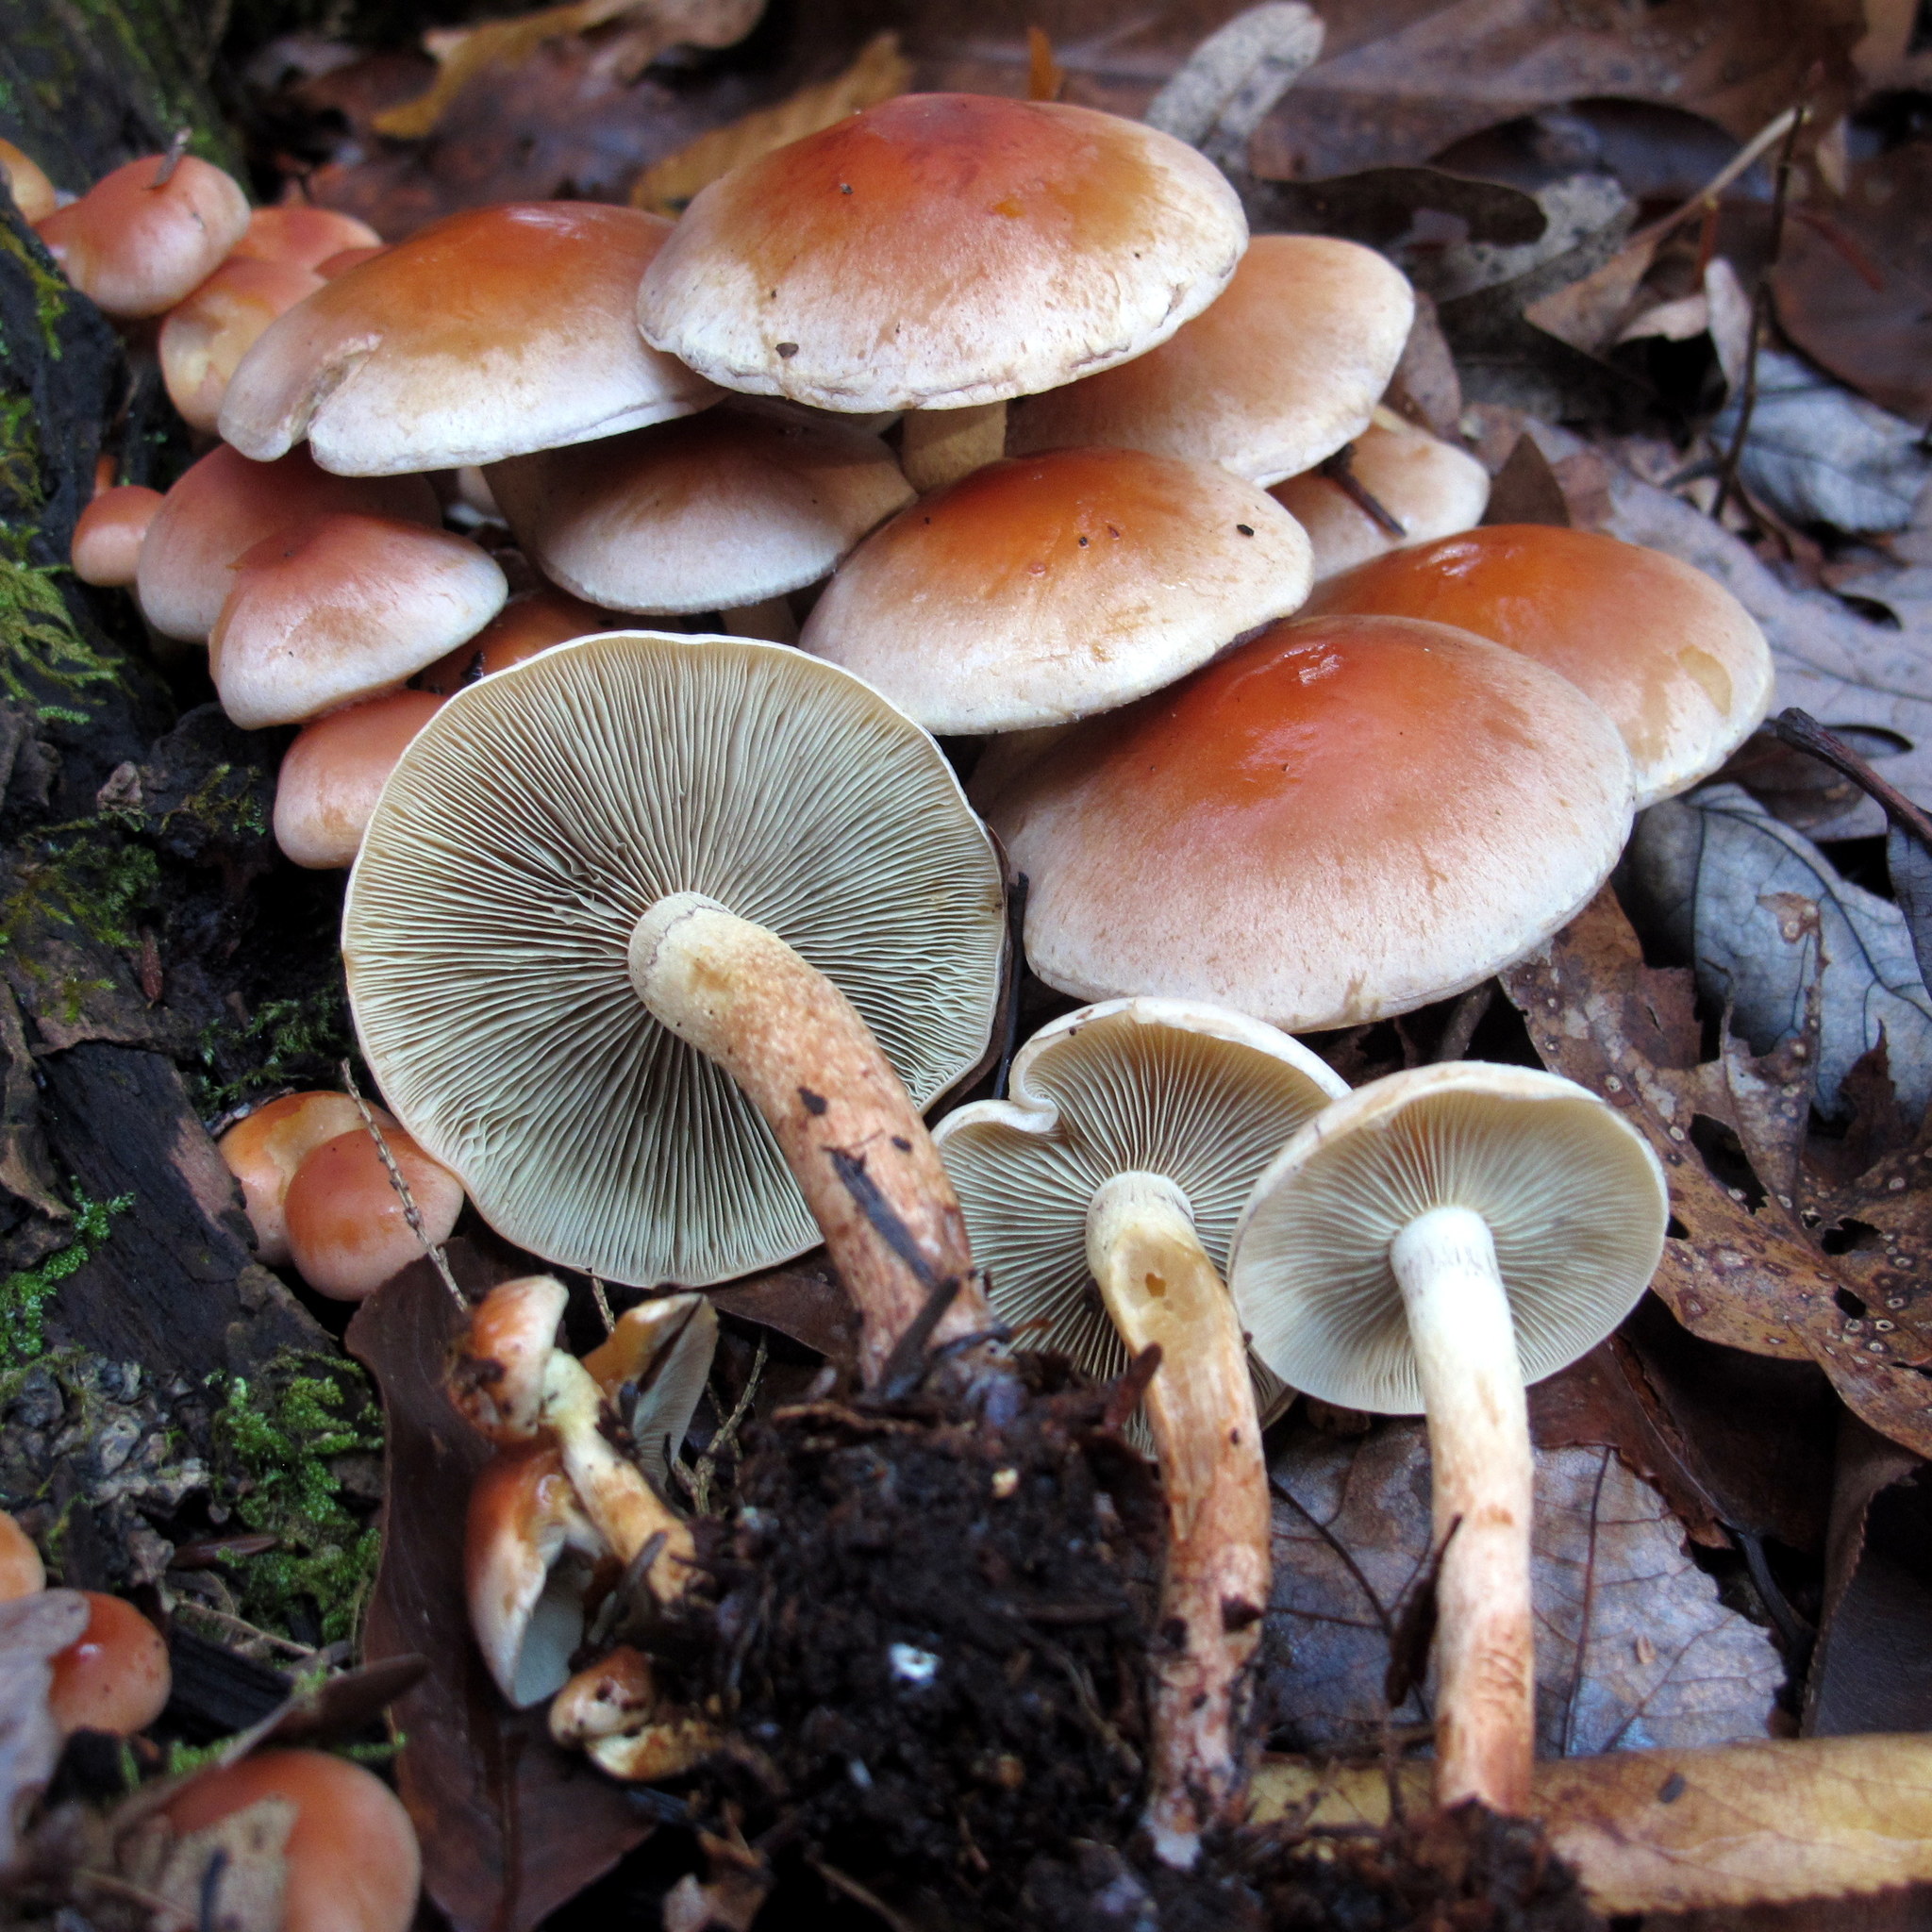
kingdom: Fungi
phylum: Basidiomycota
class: Agaricomycetes
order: Agaricales
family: Strophariaceae
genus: Hypholoma
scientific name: Hypholoma lateritium
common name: Brick caps
